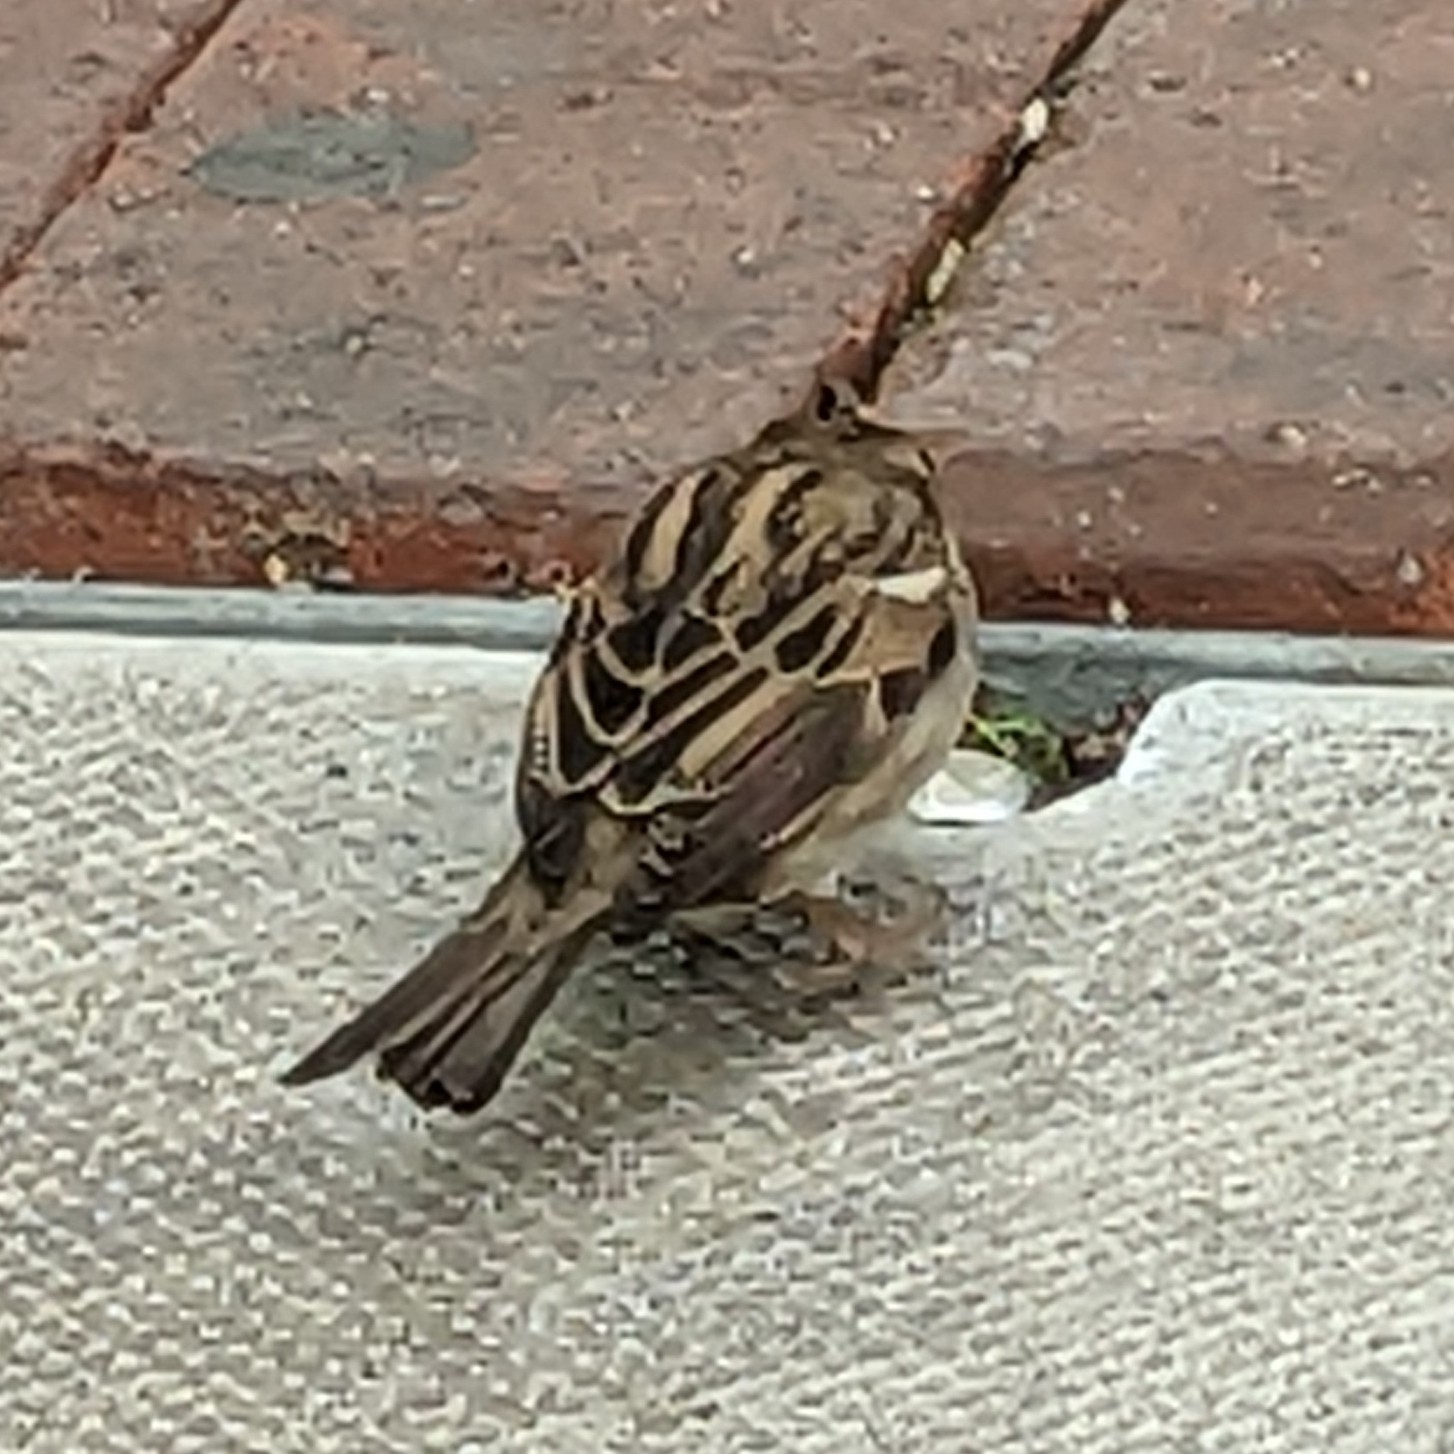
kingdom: Animalia
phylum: Chordata
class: Aves
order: Passeriformes
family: Passeridae
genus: Passer
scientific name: Passer domesticus
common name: House sparrow
